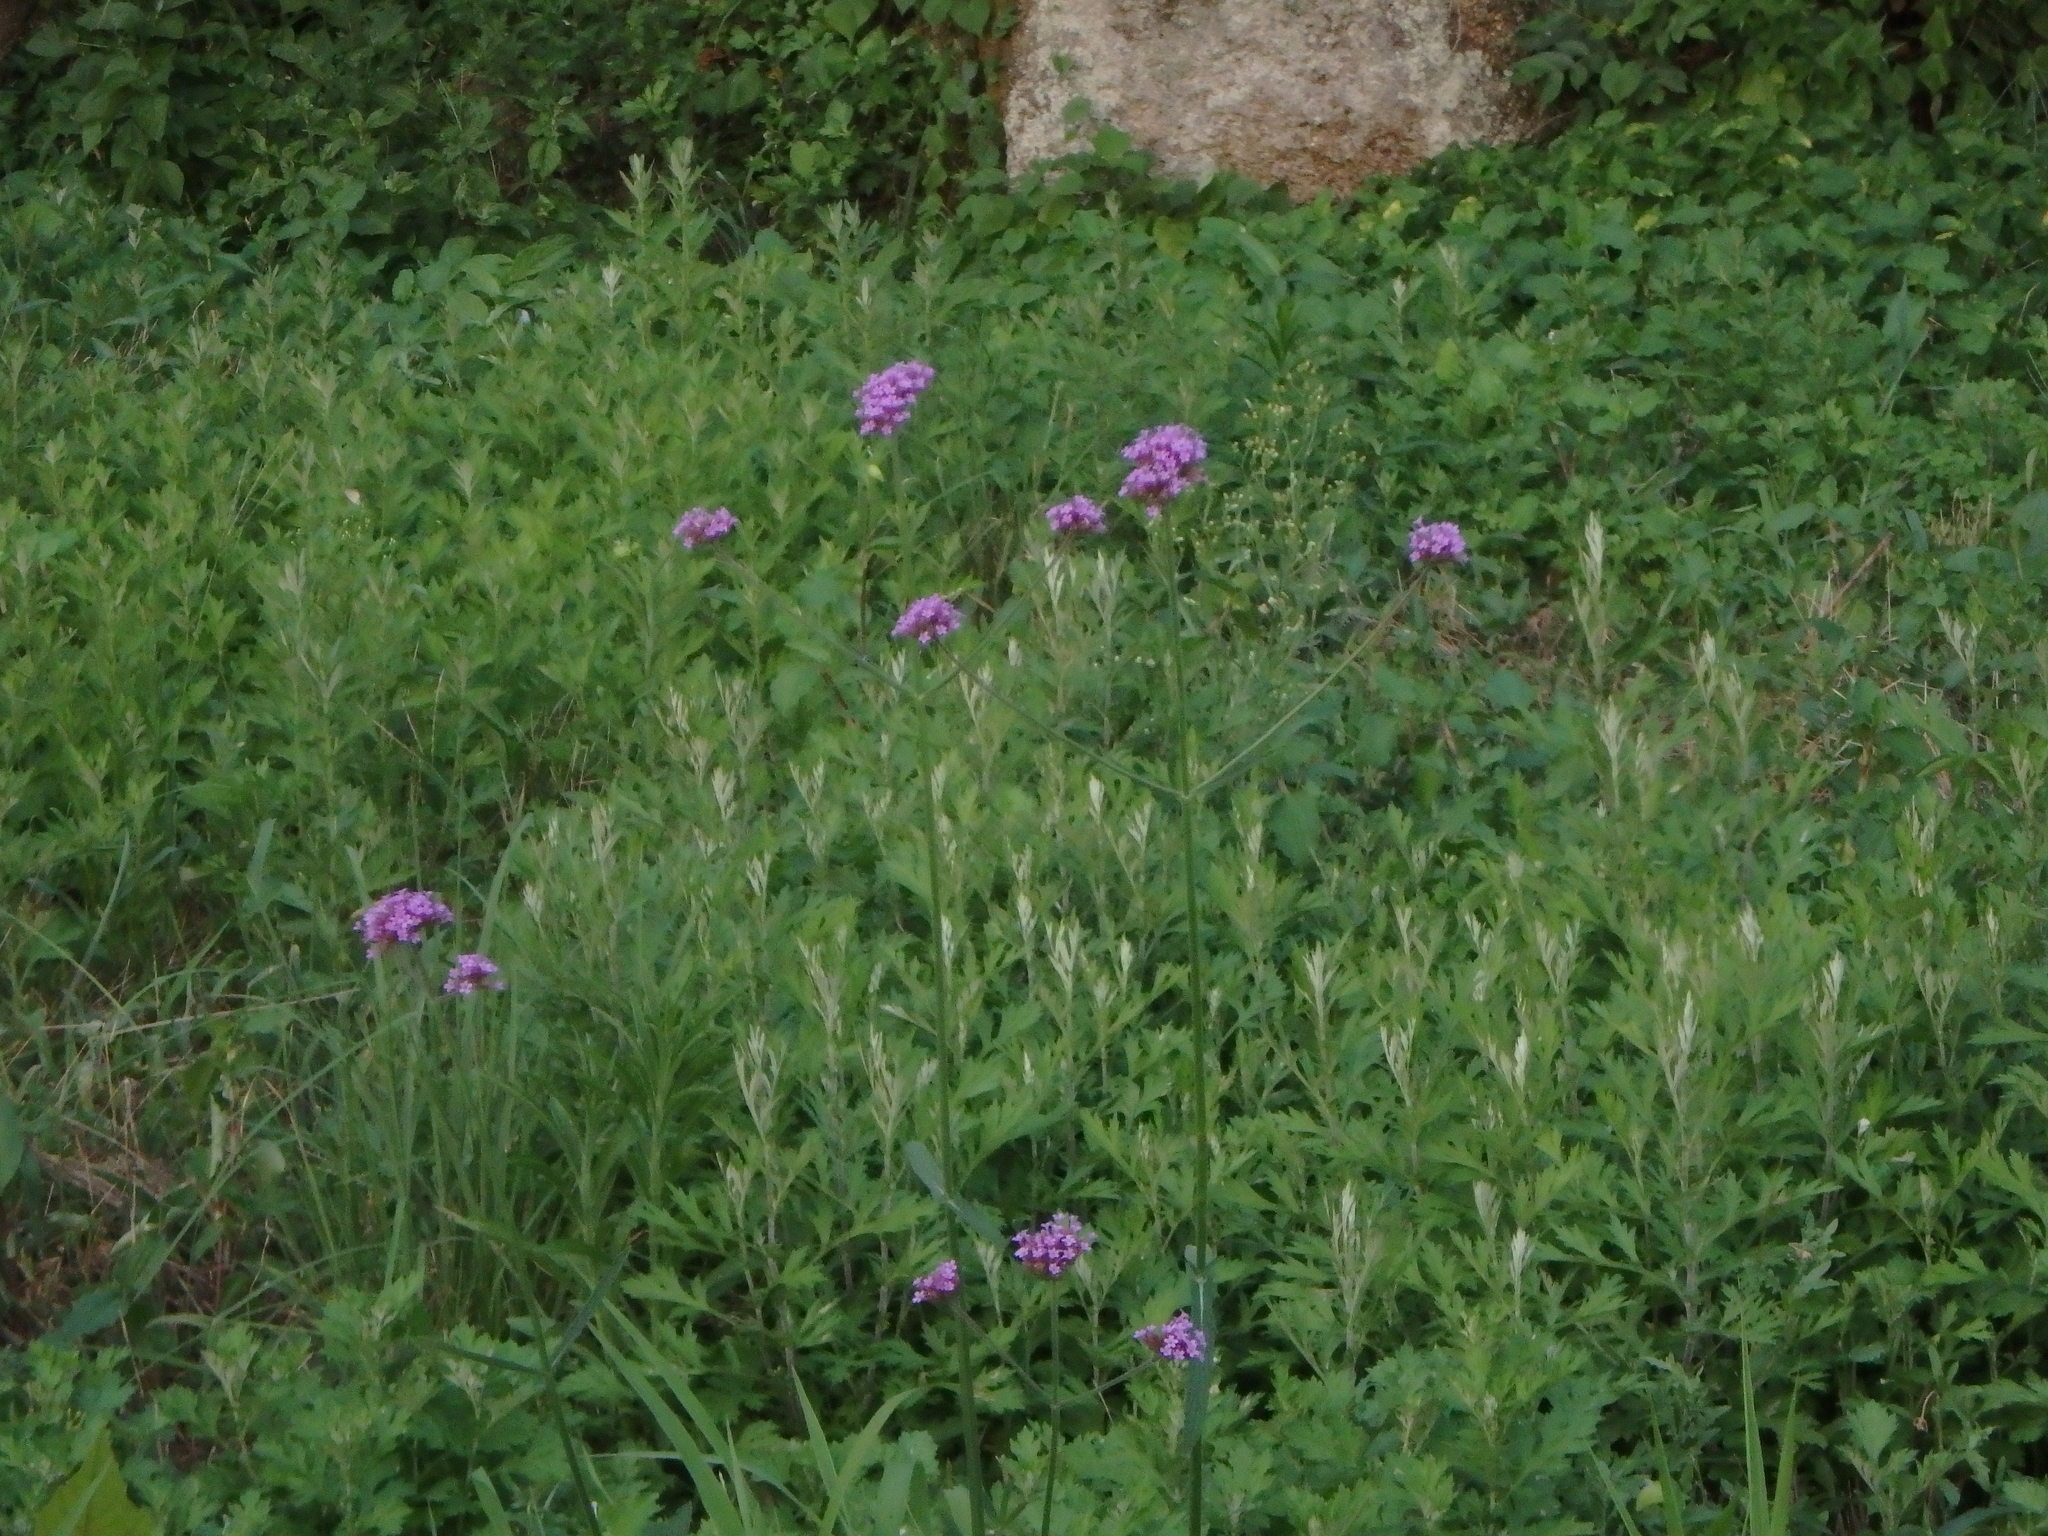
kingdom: Plantae
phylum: Tracheophyta
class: Magnoliopsida
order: Lamiales
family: Verbenaceae
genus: Verbena
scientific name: Verbena bonariensis
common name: Purpletop vervain
